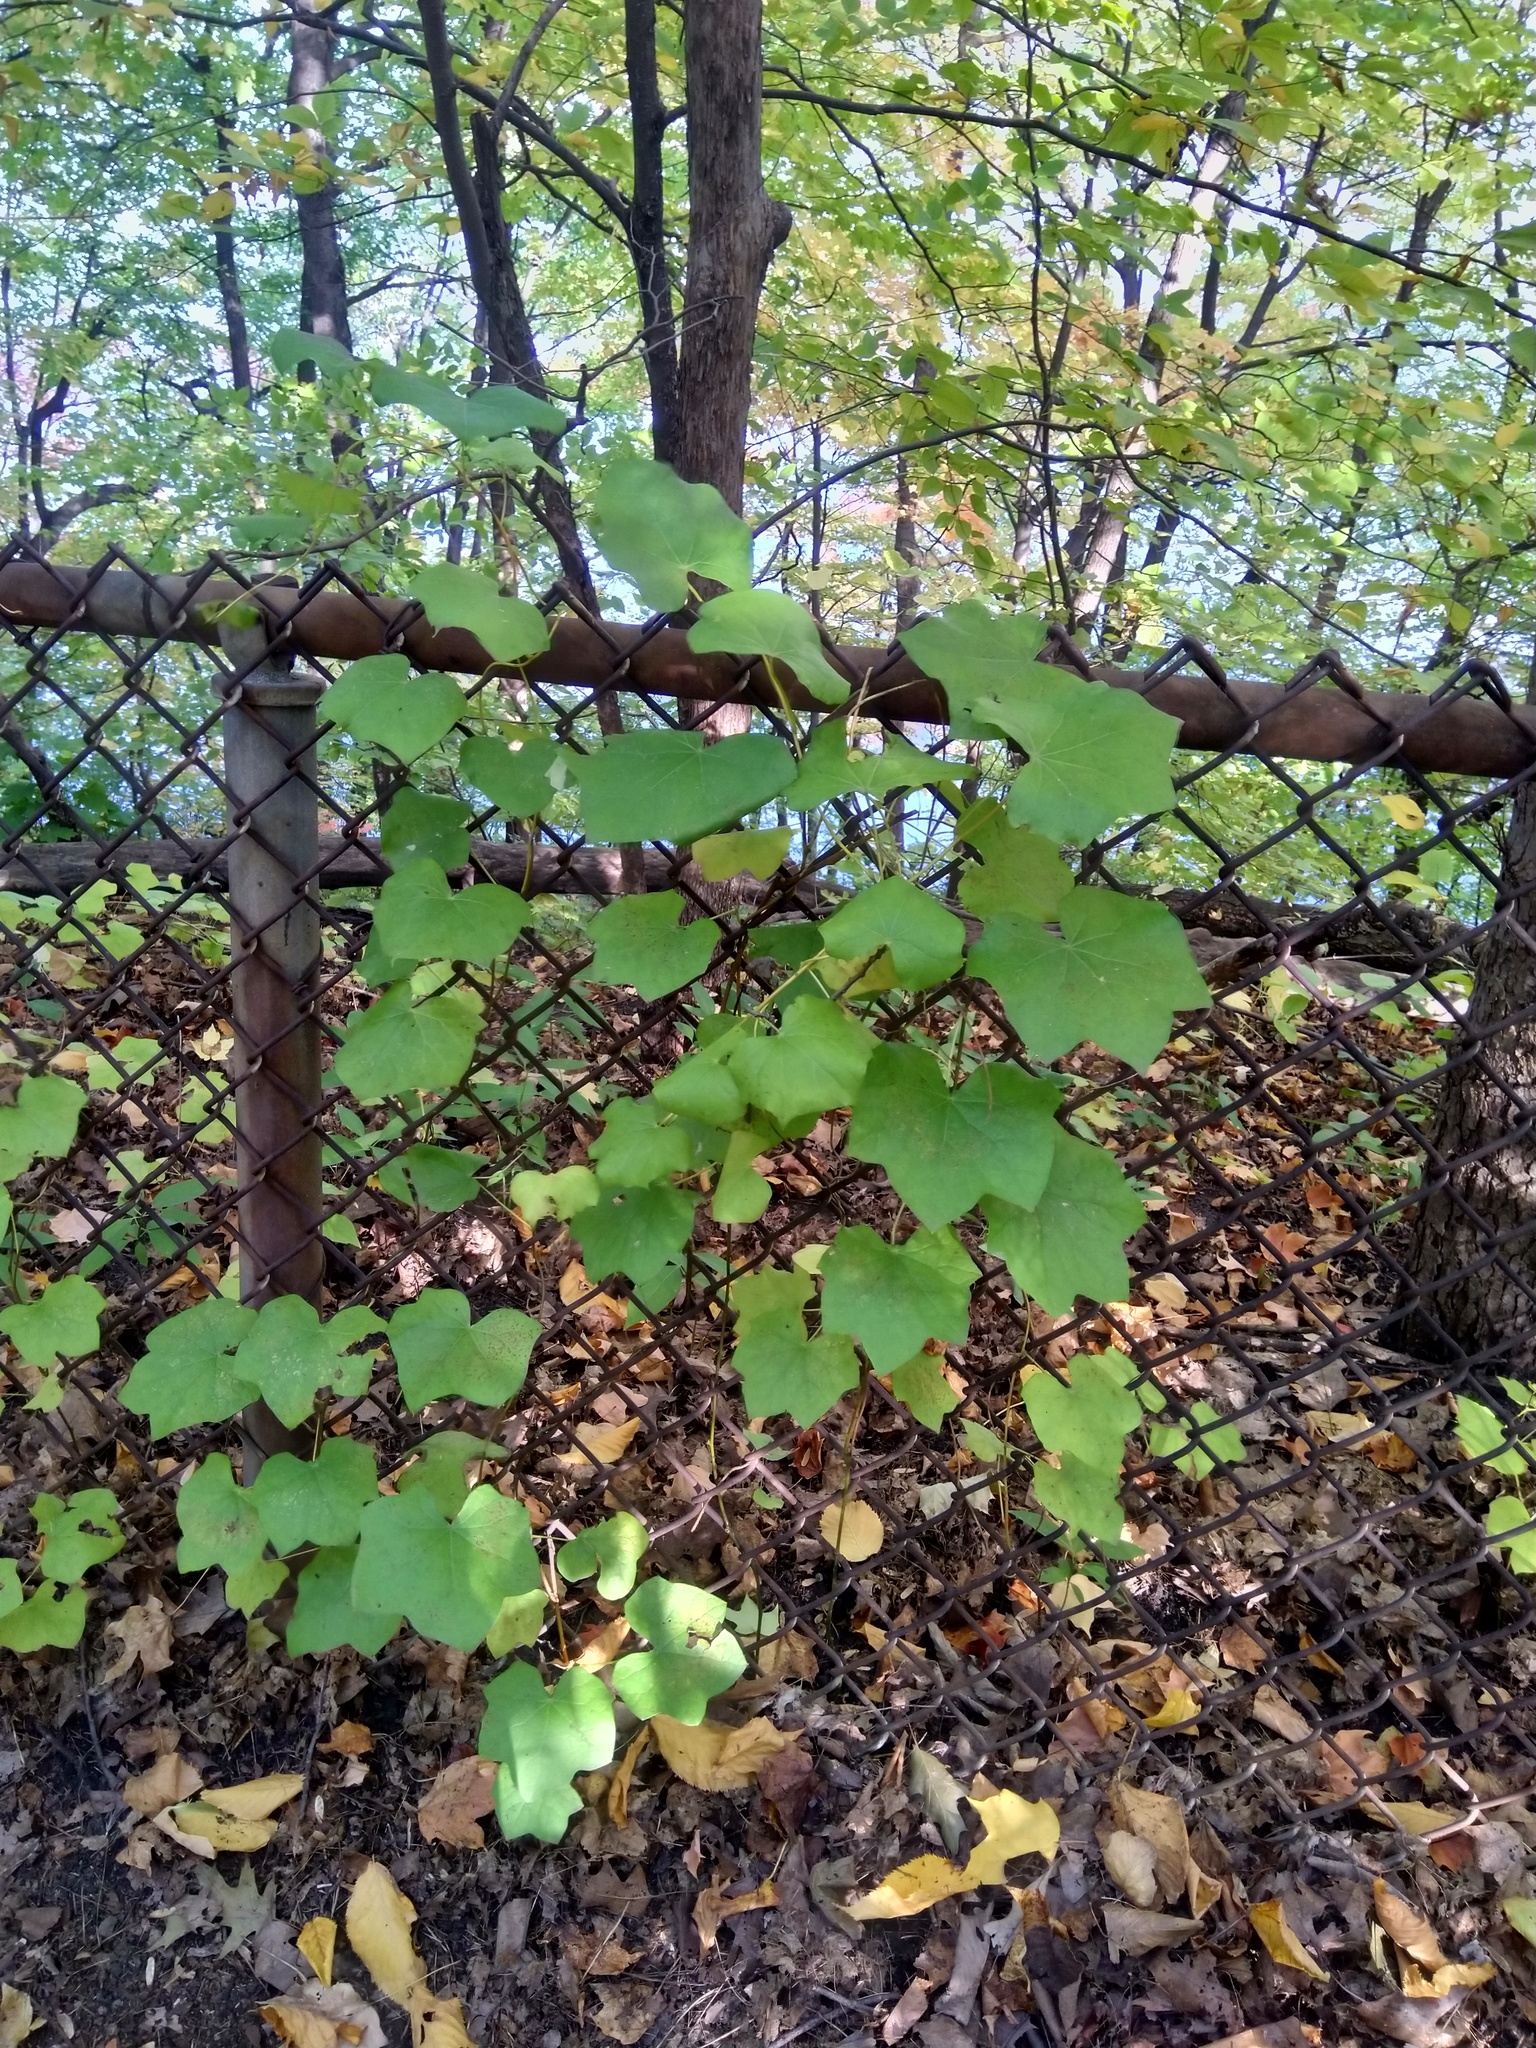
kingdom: Plantae
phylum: Tracheophyta
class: Magnoliopsida
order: Ranunculales
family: Menispermaceae
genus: Menispermum
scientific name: Menispermum canadense
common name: Moonseed
